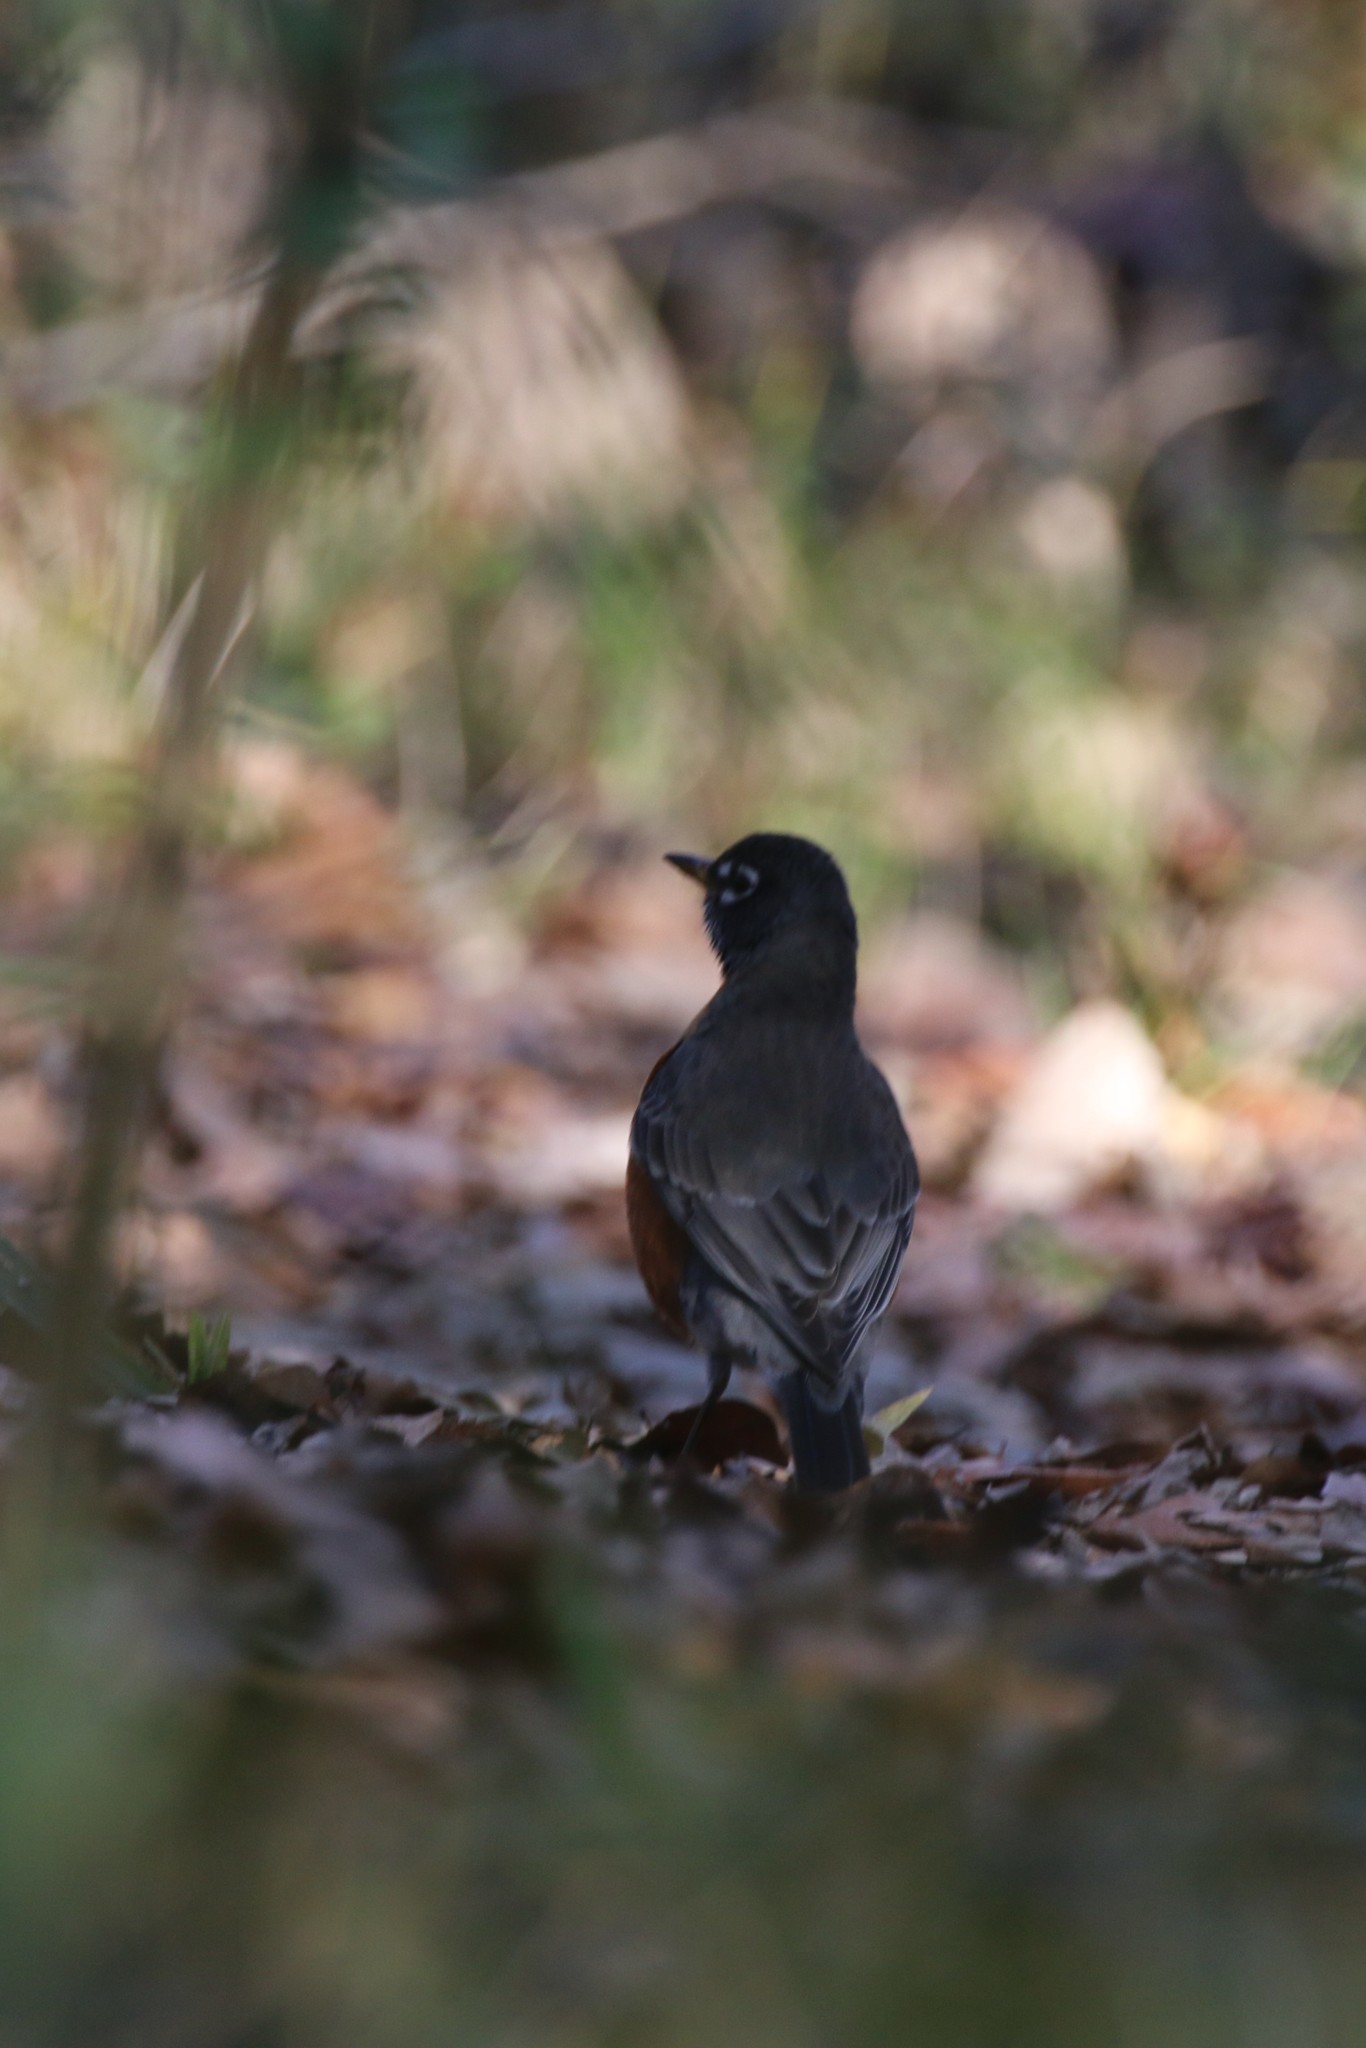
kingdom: Animalia
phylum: Chordata
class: Aves
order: Passeriformes
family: Turdidae
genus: Turdus
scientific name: Turdus migratorius
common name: American robin
